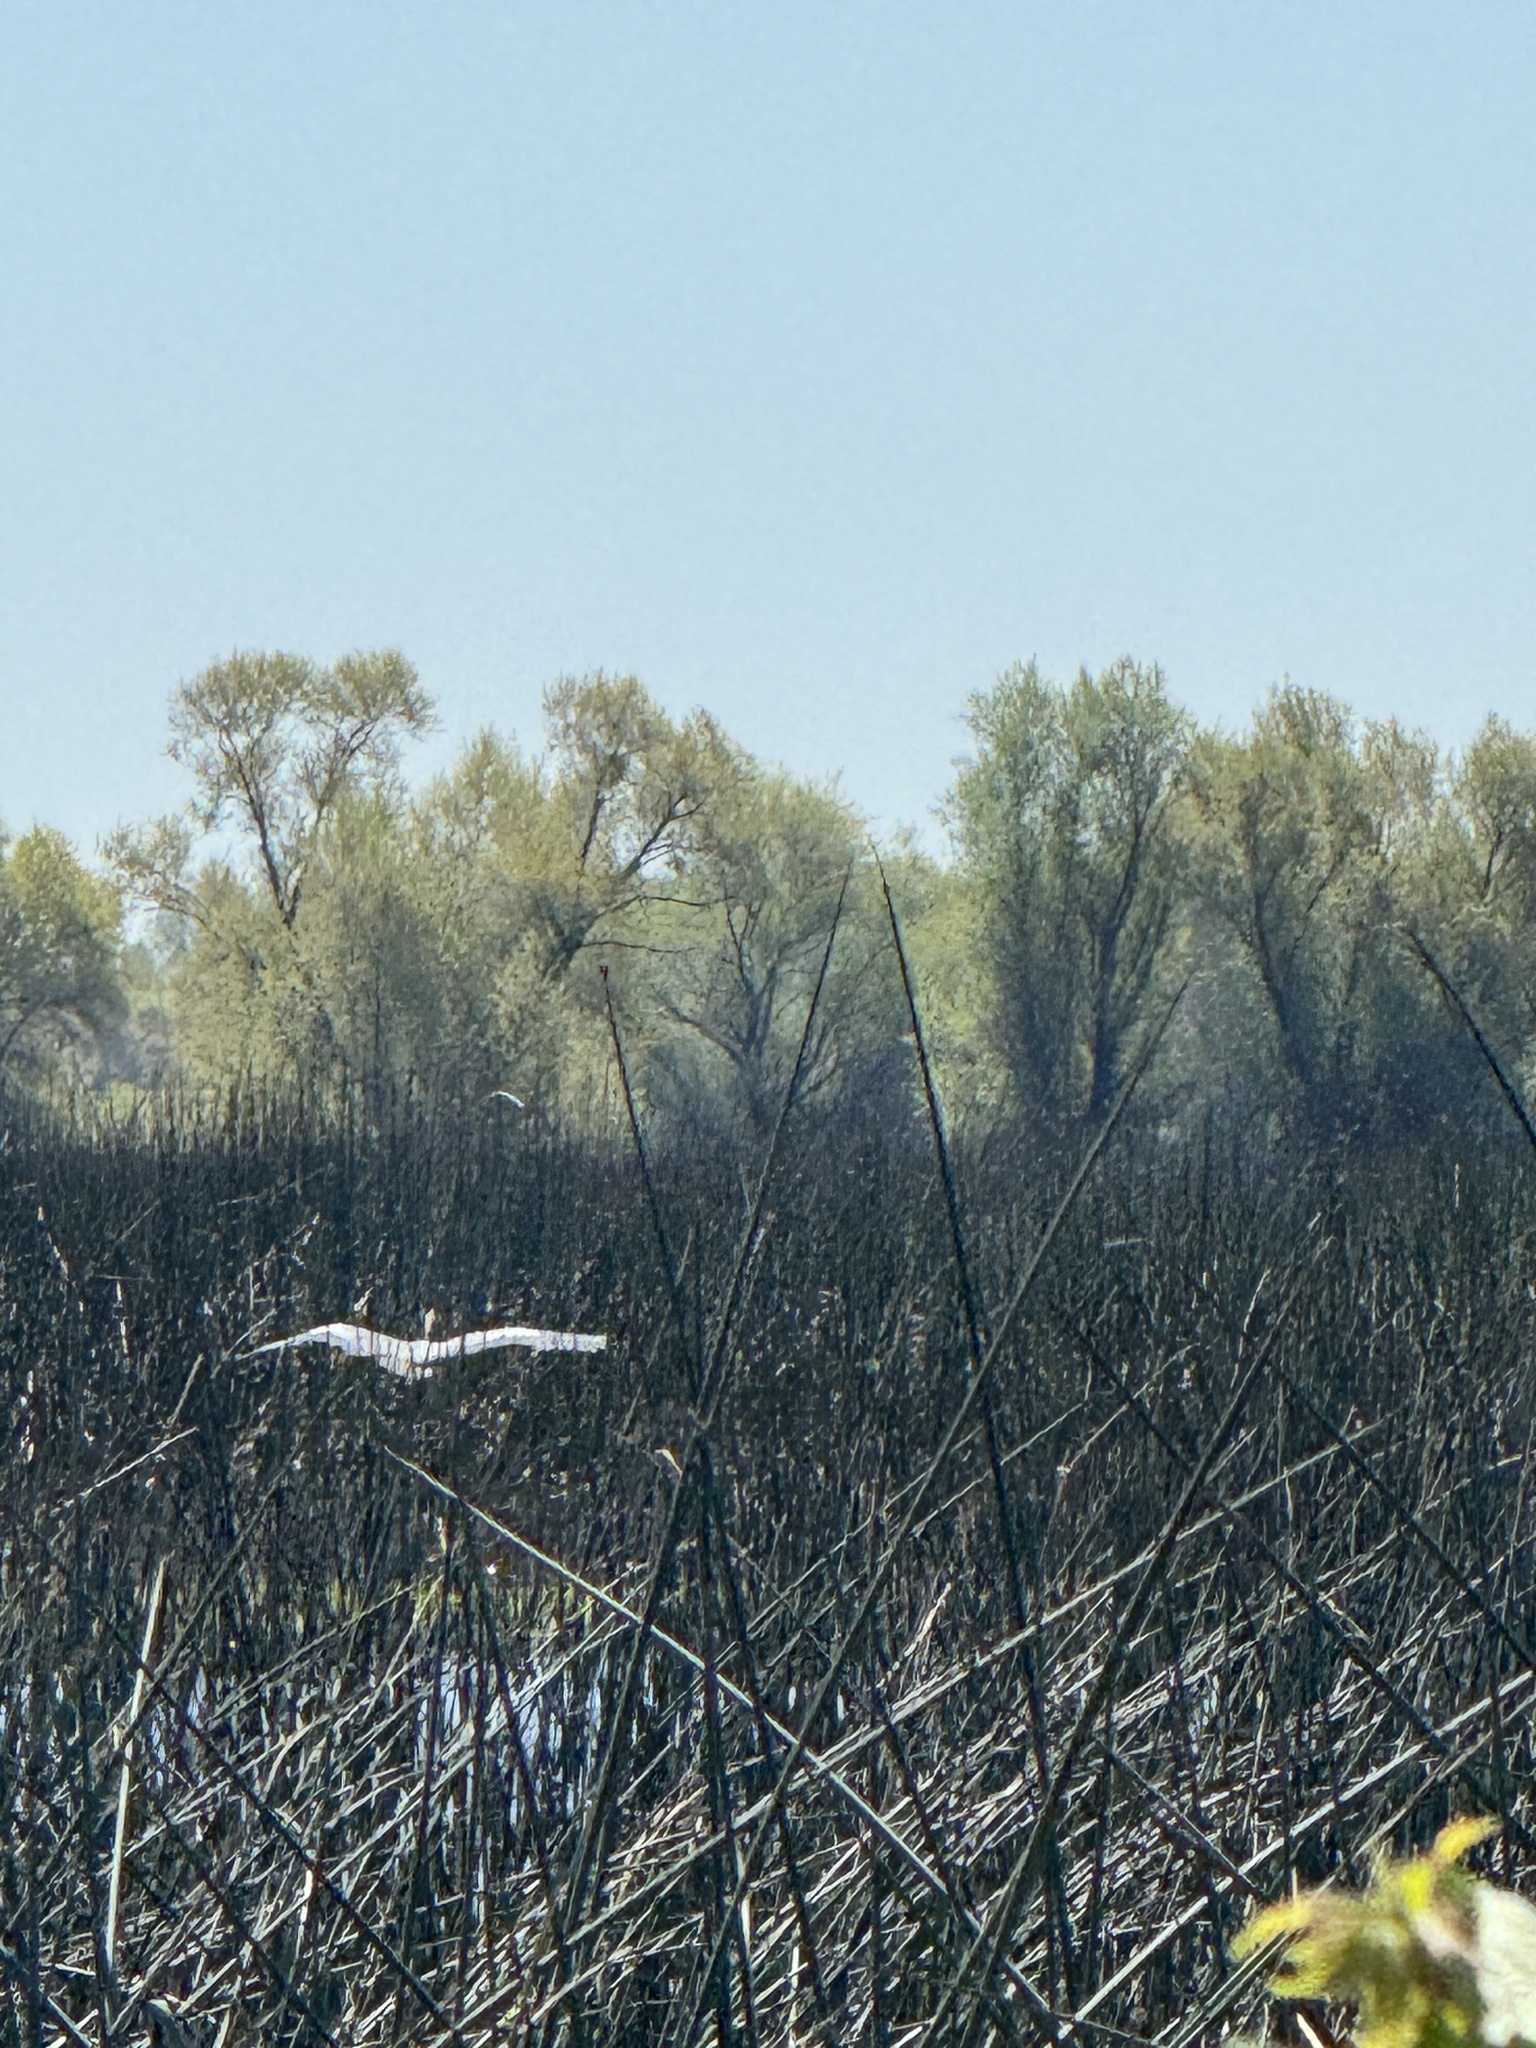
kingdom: Animalia
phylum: Chordata
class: Aves
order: Pelecaniformes
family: Ardeidae
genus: Ardea
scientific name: Ardea herodias
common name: Great blue heron
